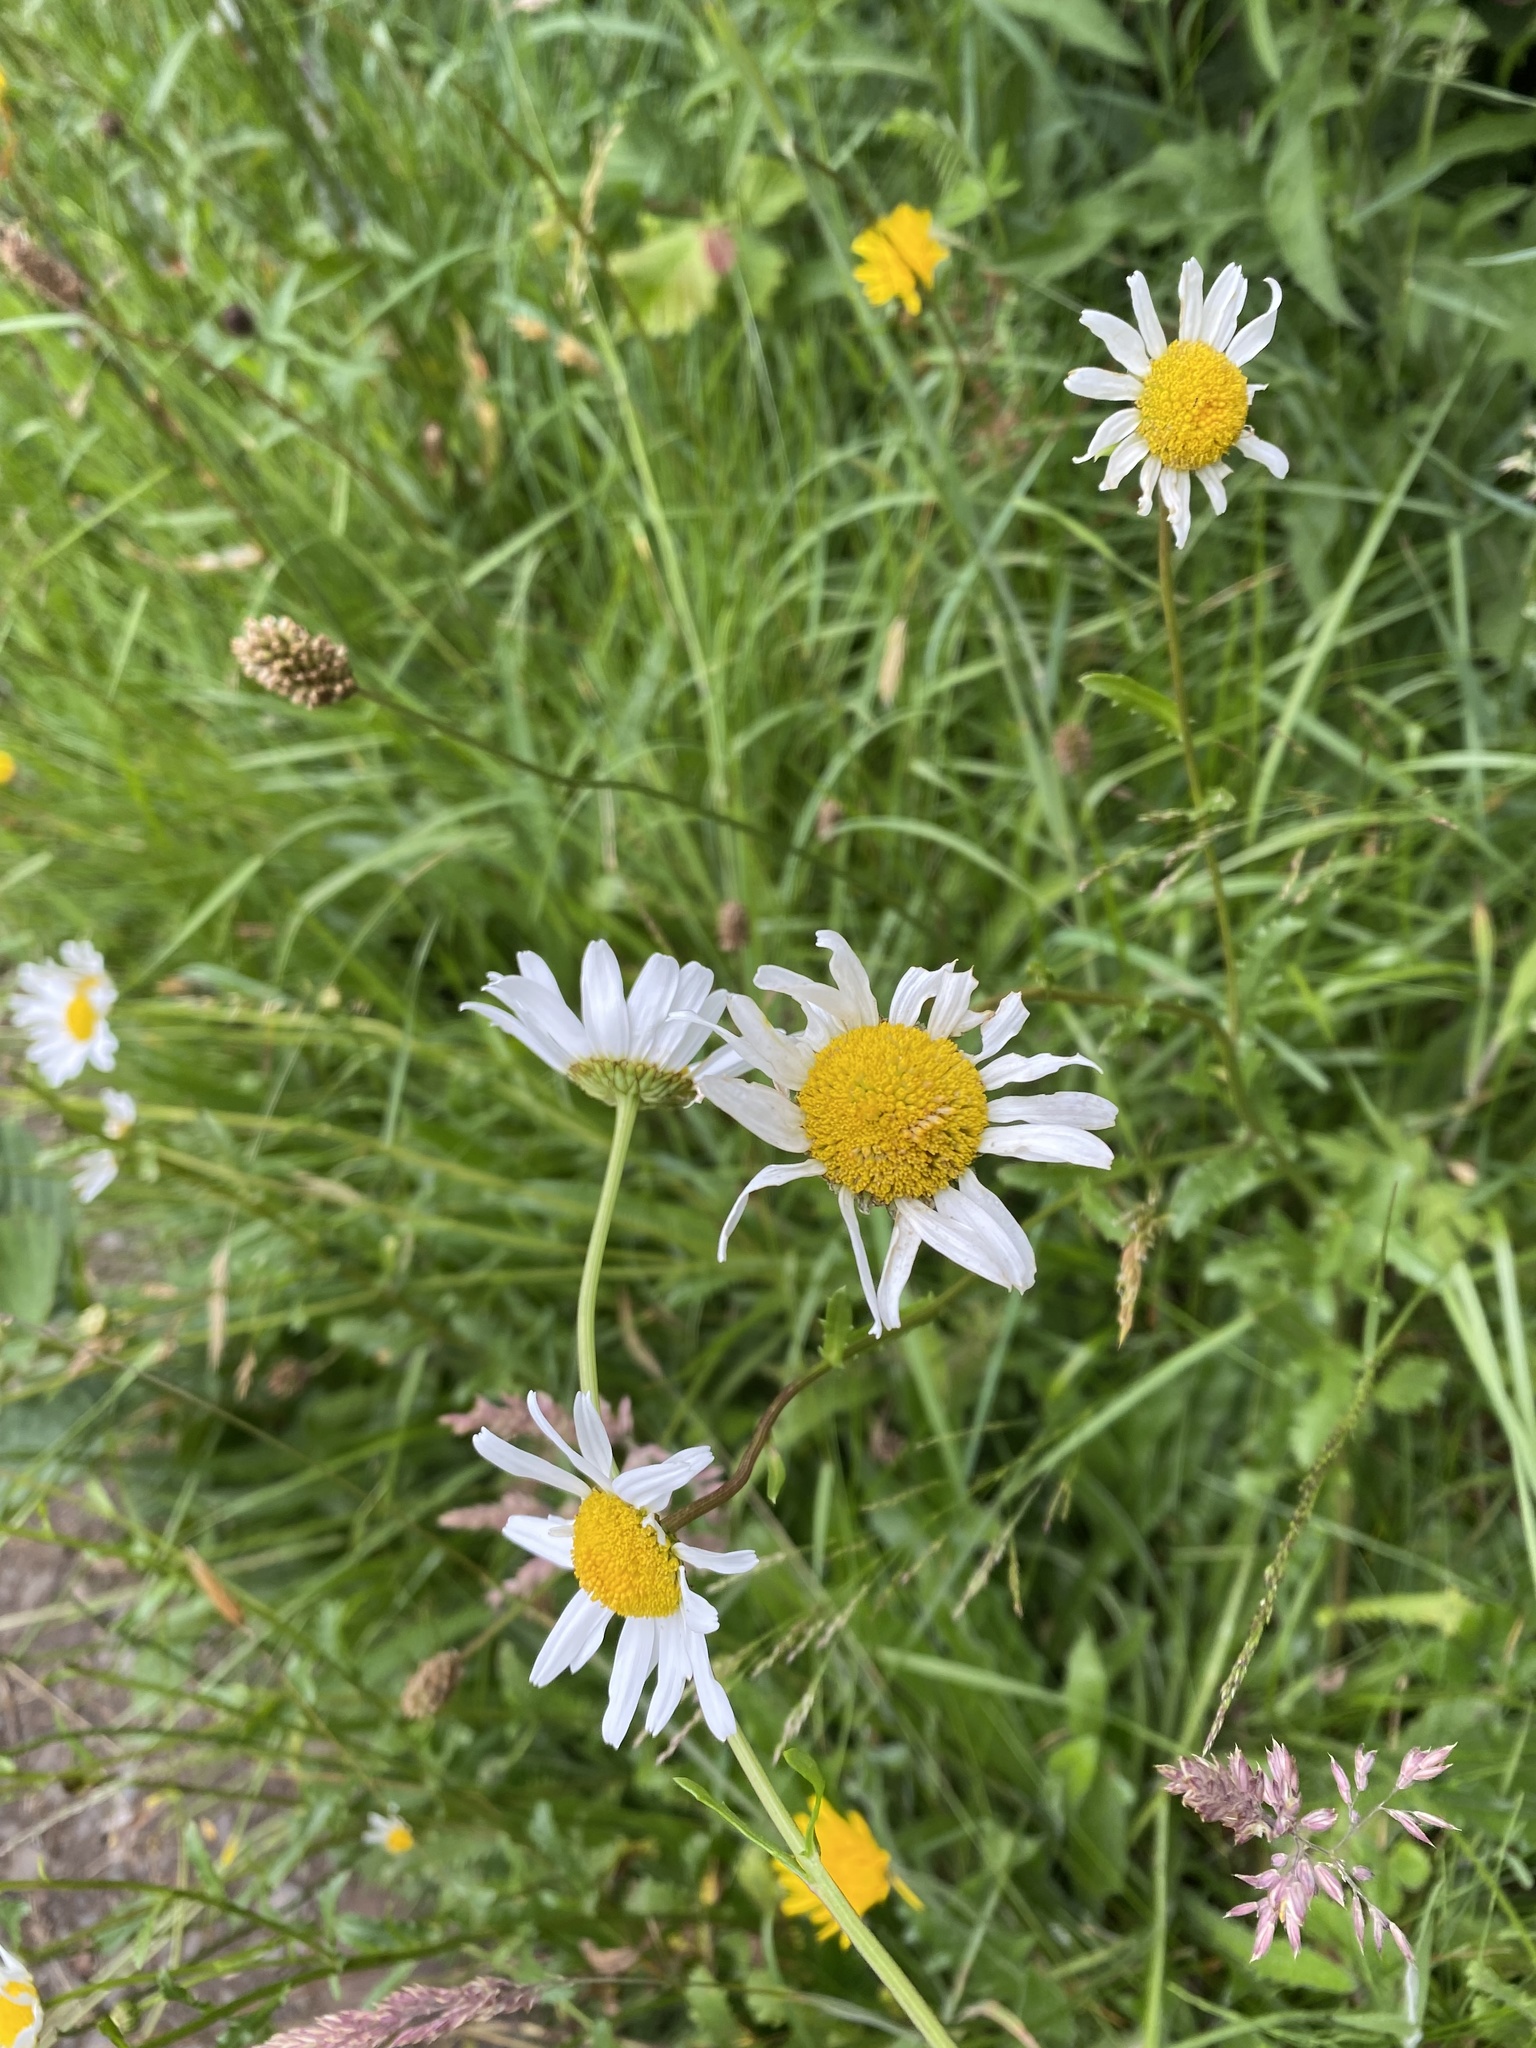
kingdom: Plantae
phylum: Tracheophyta
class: Magnoliopsida
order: Asterales
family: Asteraceae
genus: Leucanthemum
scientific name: Leucanthemum vulgare
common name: Oxeye daisy
